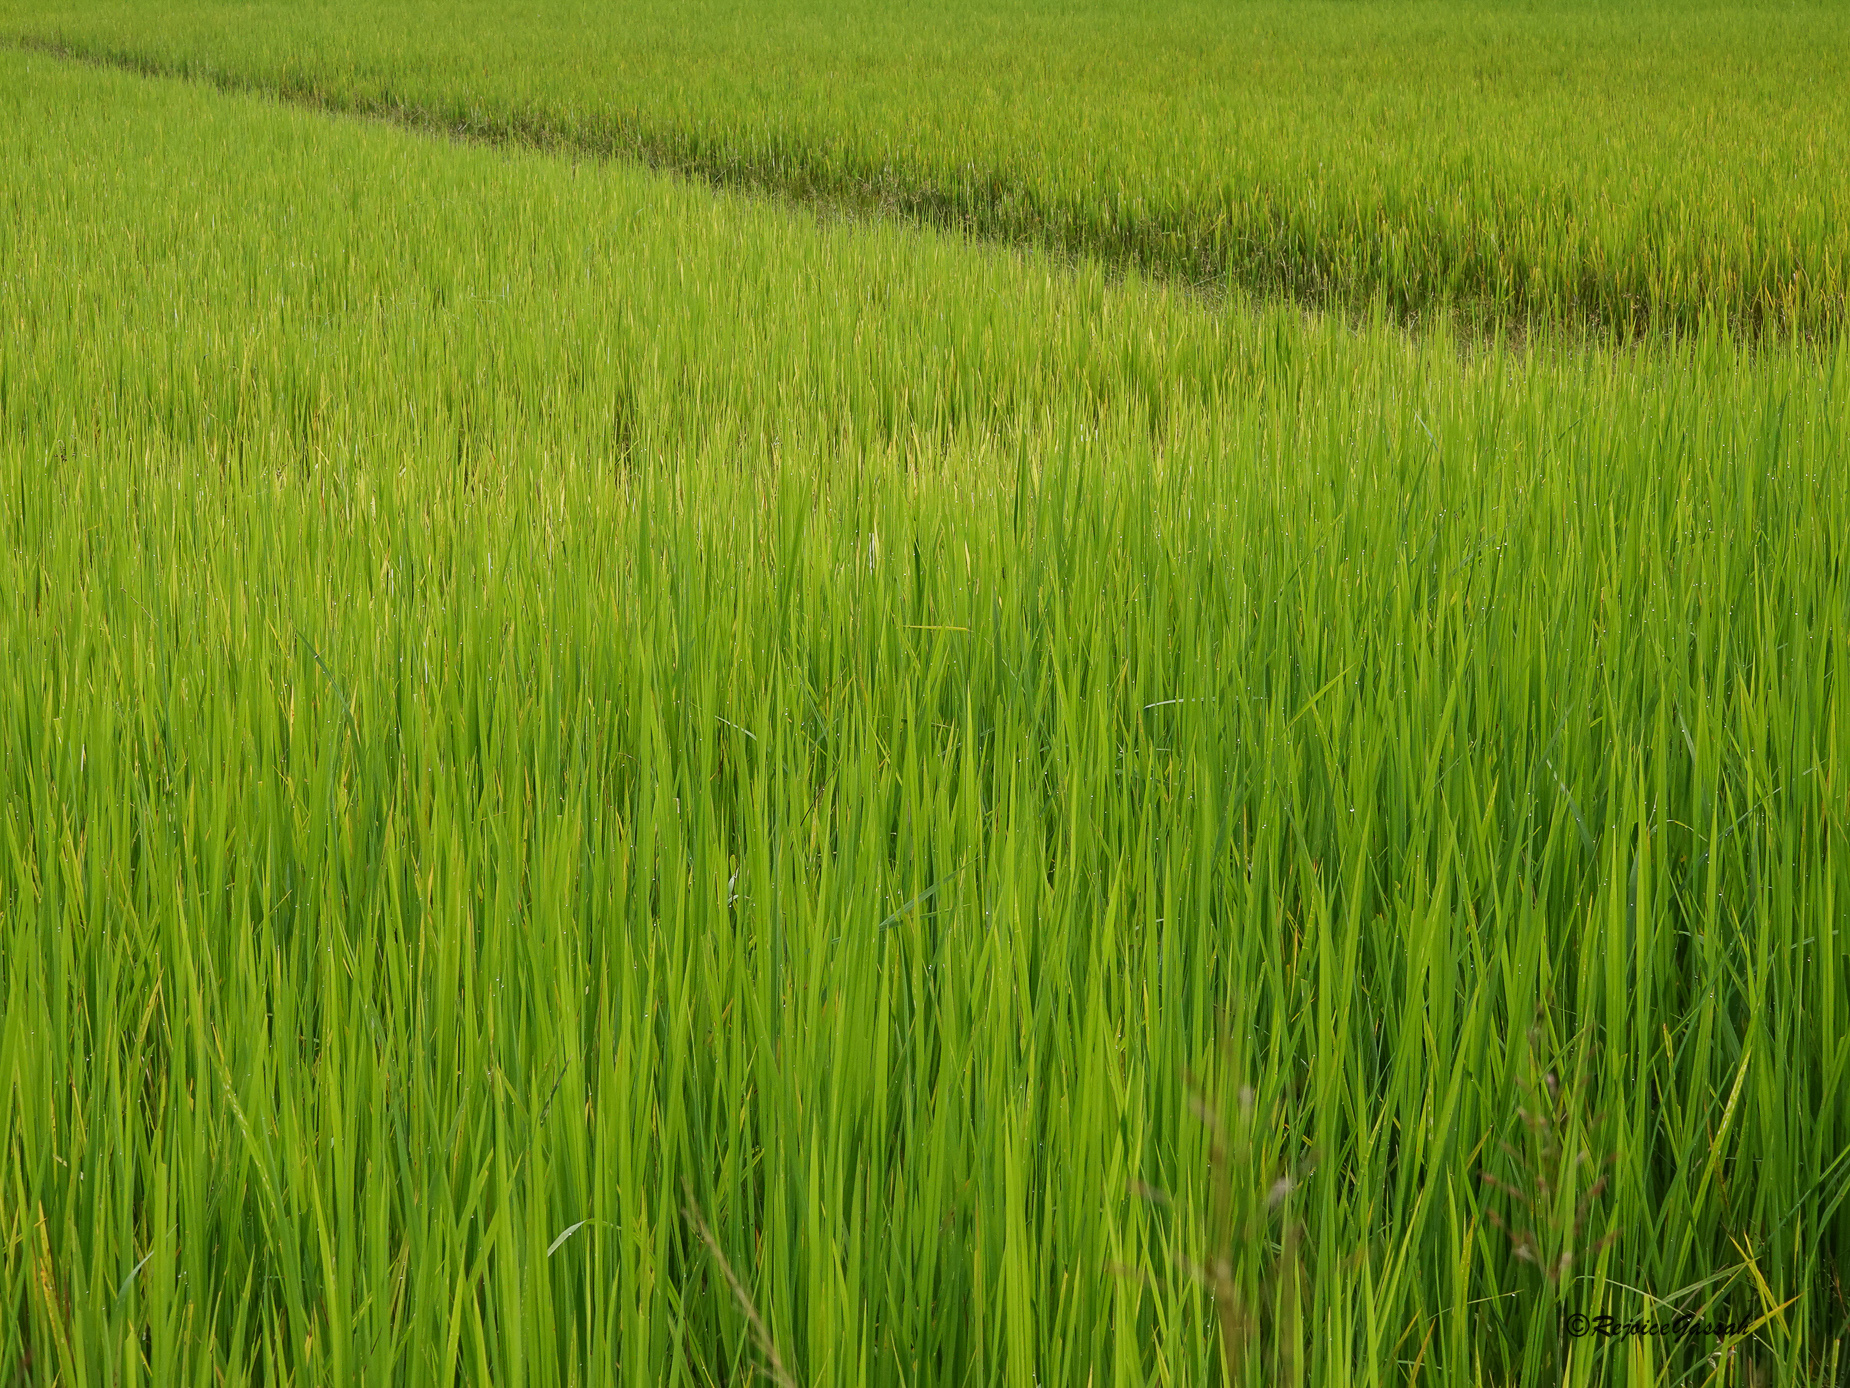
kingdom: Plantae
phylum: Tracheophyta
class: Liliopsida
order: Poales
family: Poaceae
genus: Oryza
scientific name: Oryza sativa
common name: Rice
